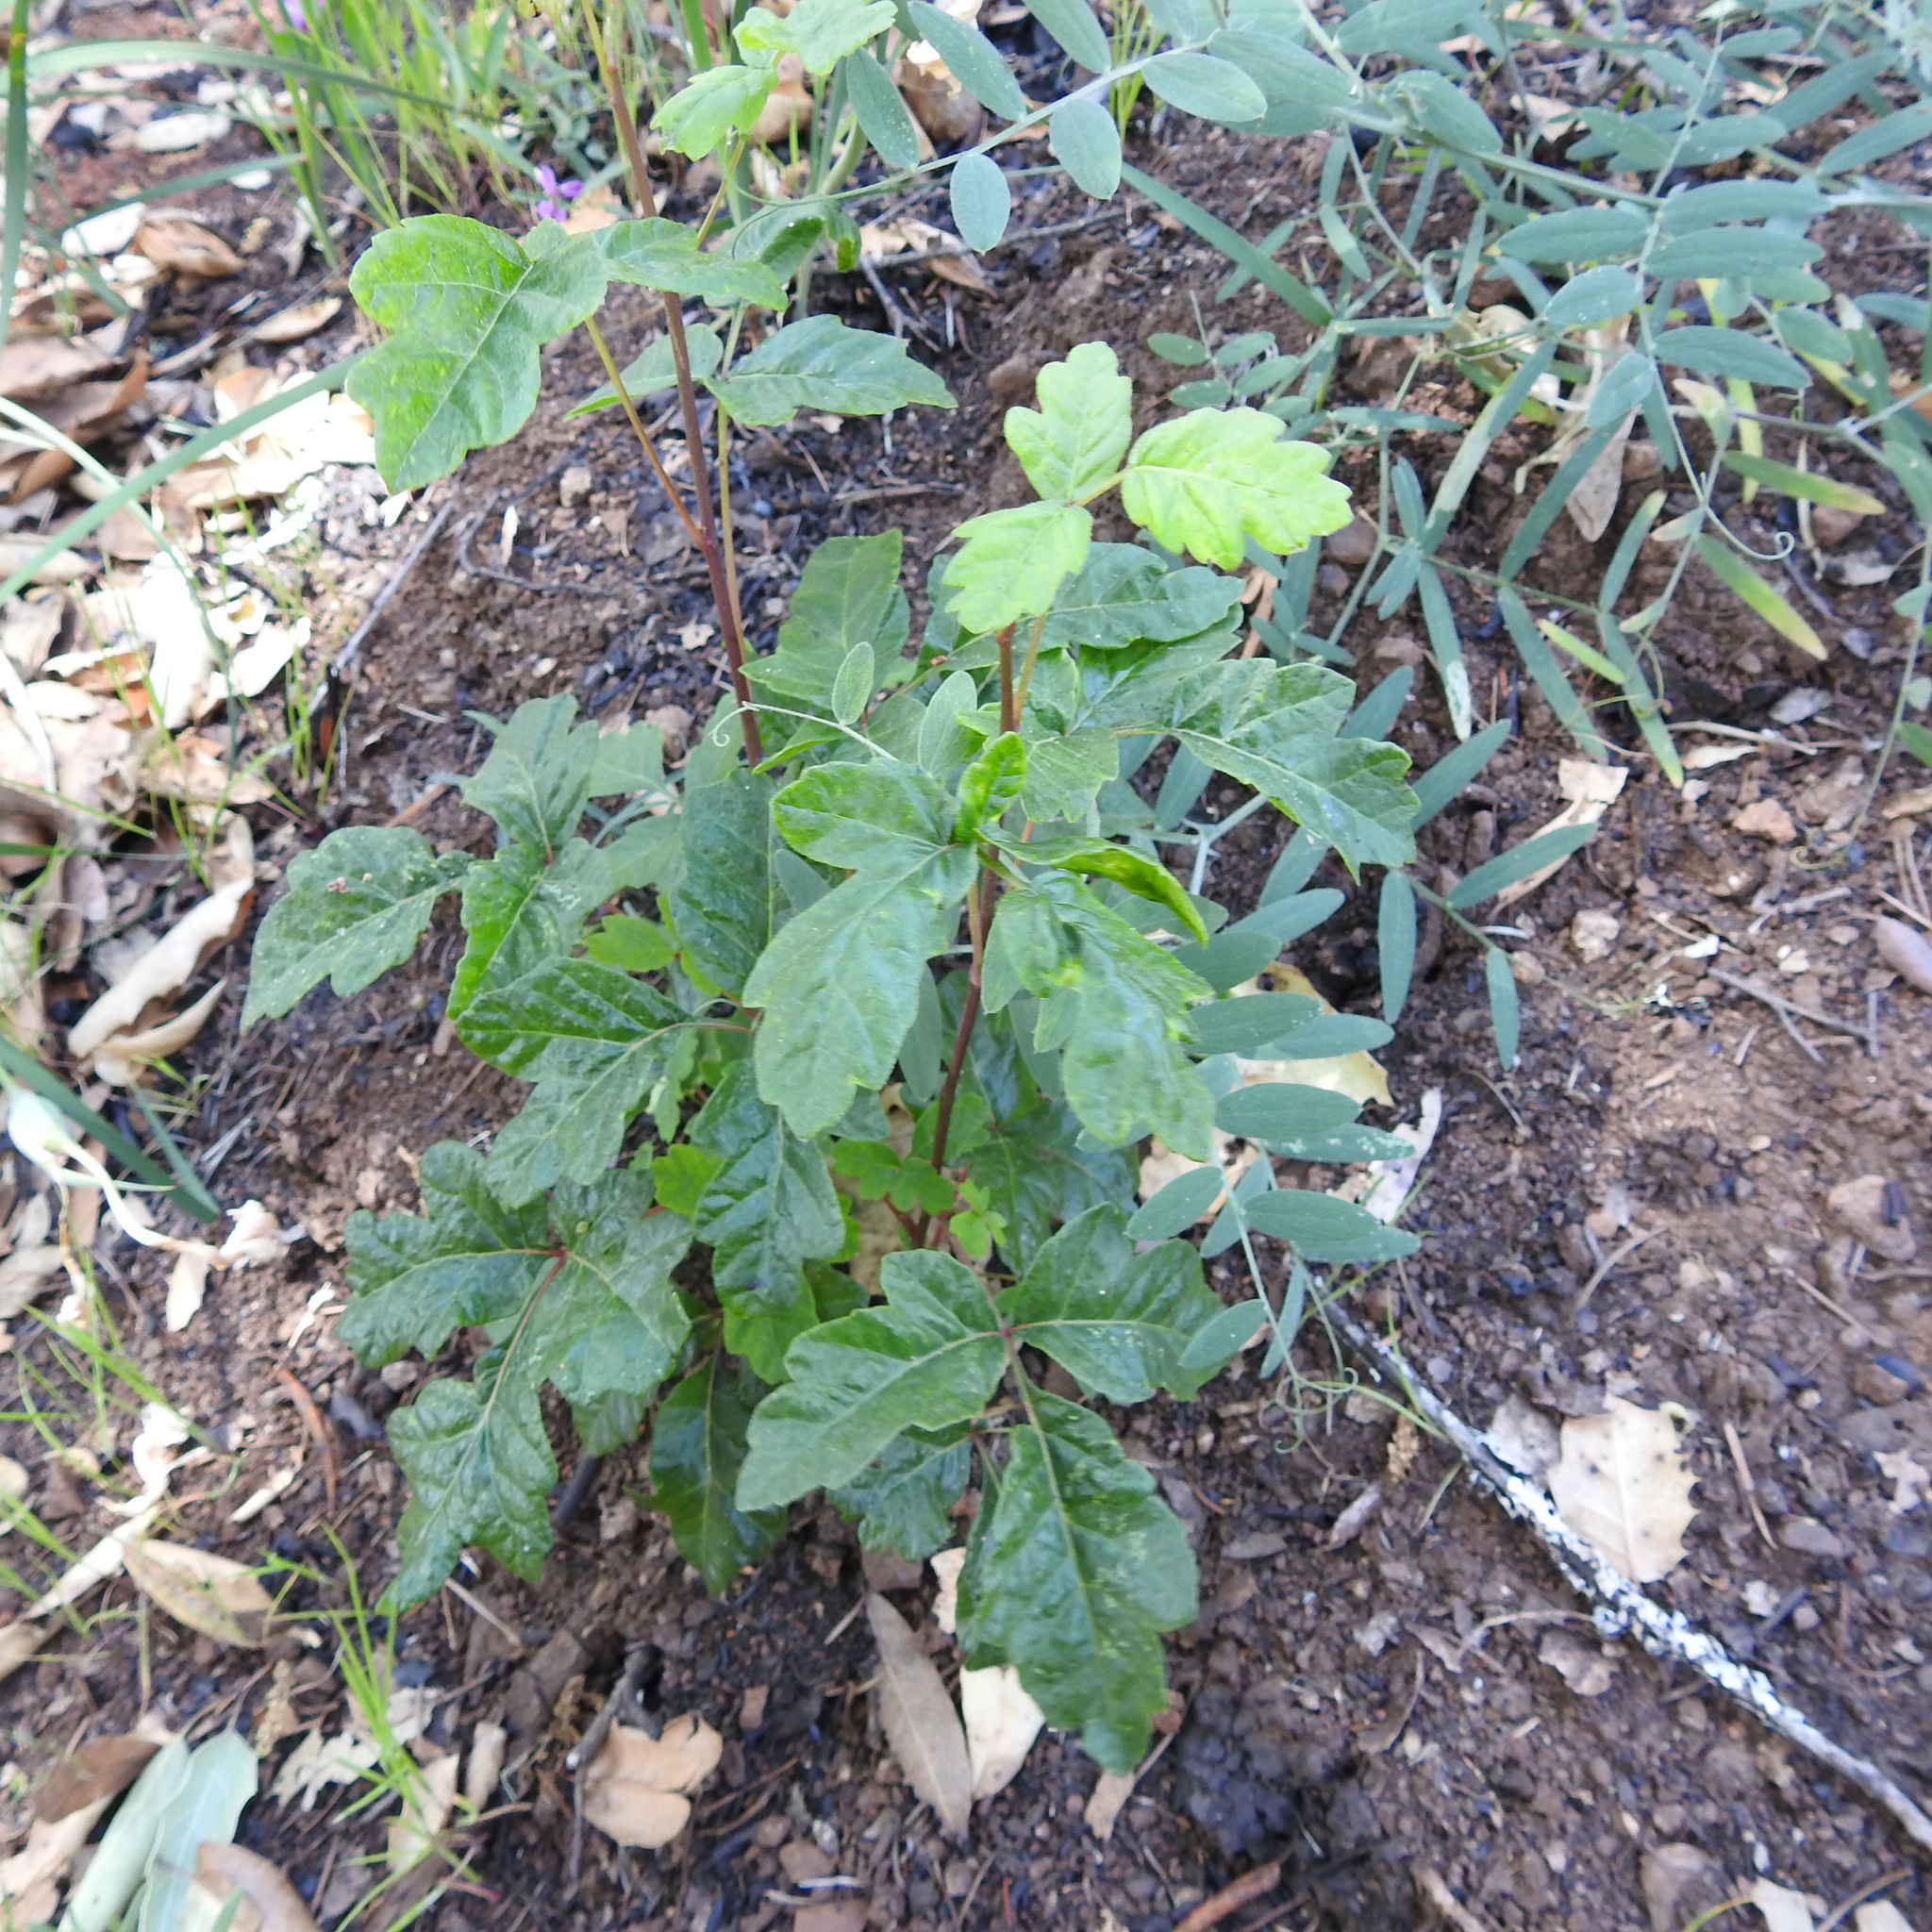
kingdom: Plantae
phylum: Tracheophyta
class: Magnoliopsida
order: Sapindales
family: Anacardiaceae
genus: Toxicodendron
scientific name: Toxicodendron diversilobum
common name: Pacific poison-oak
